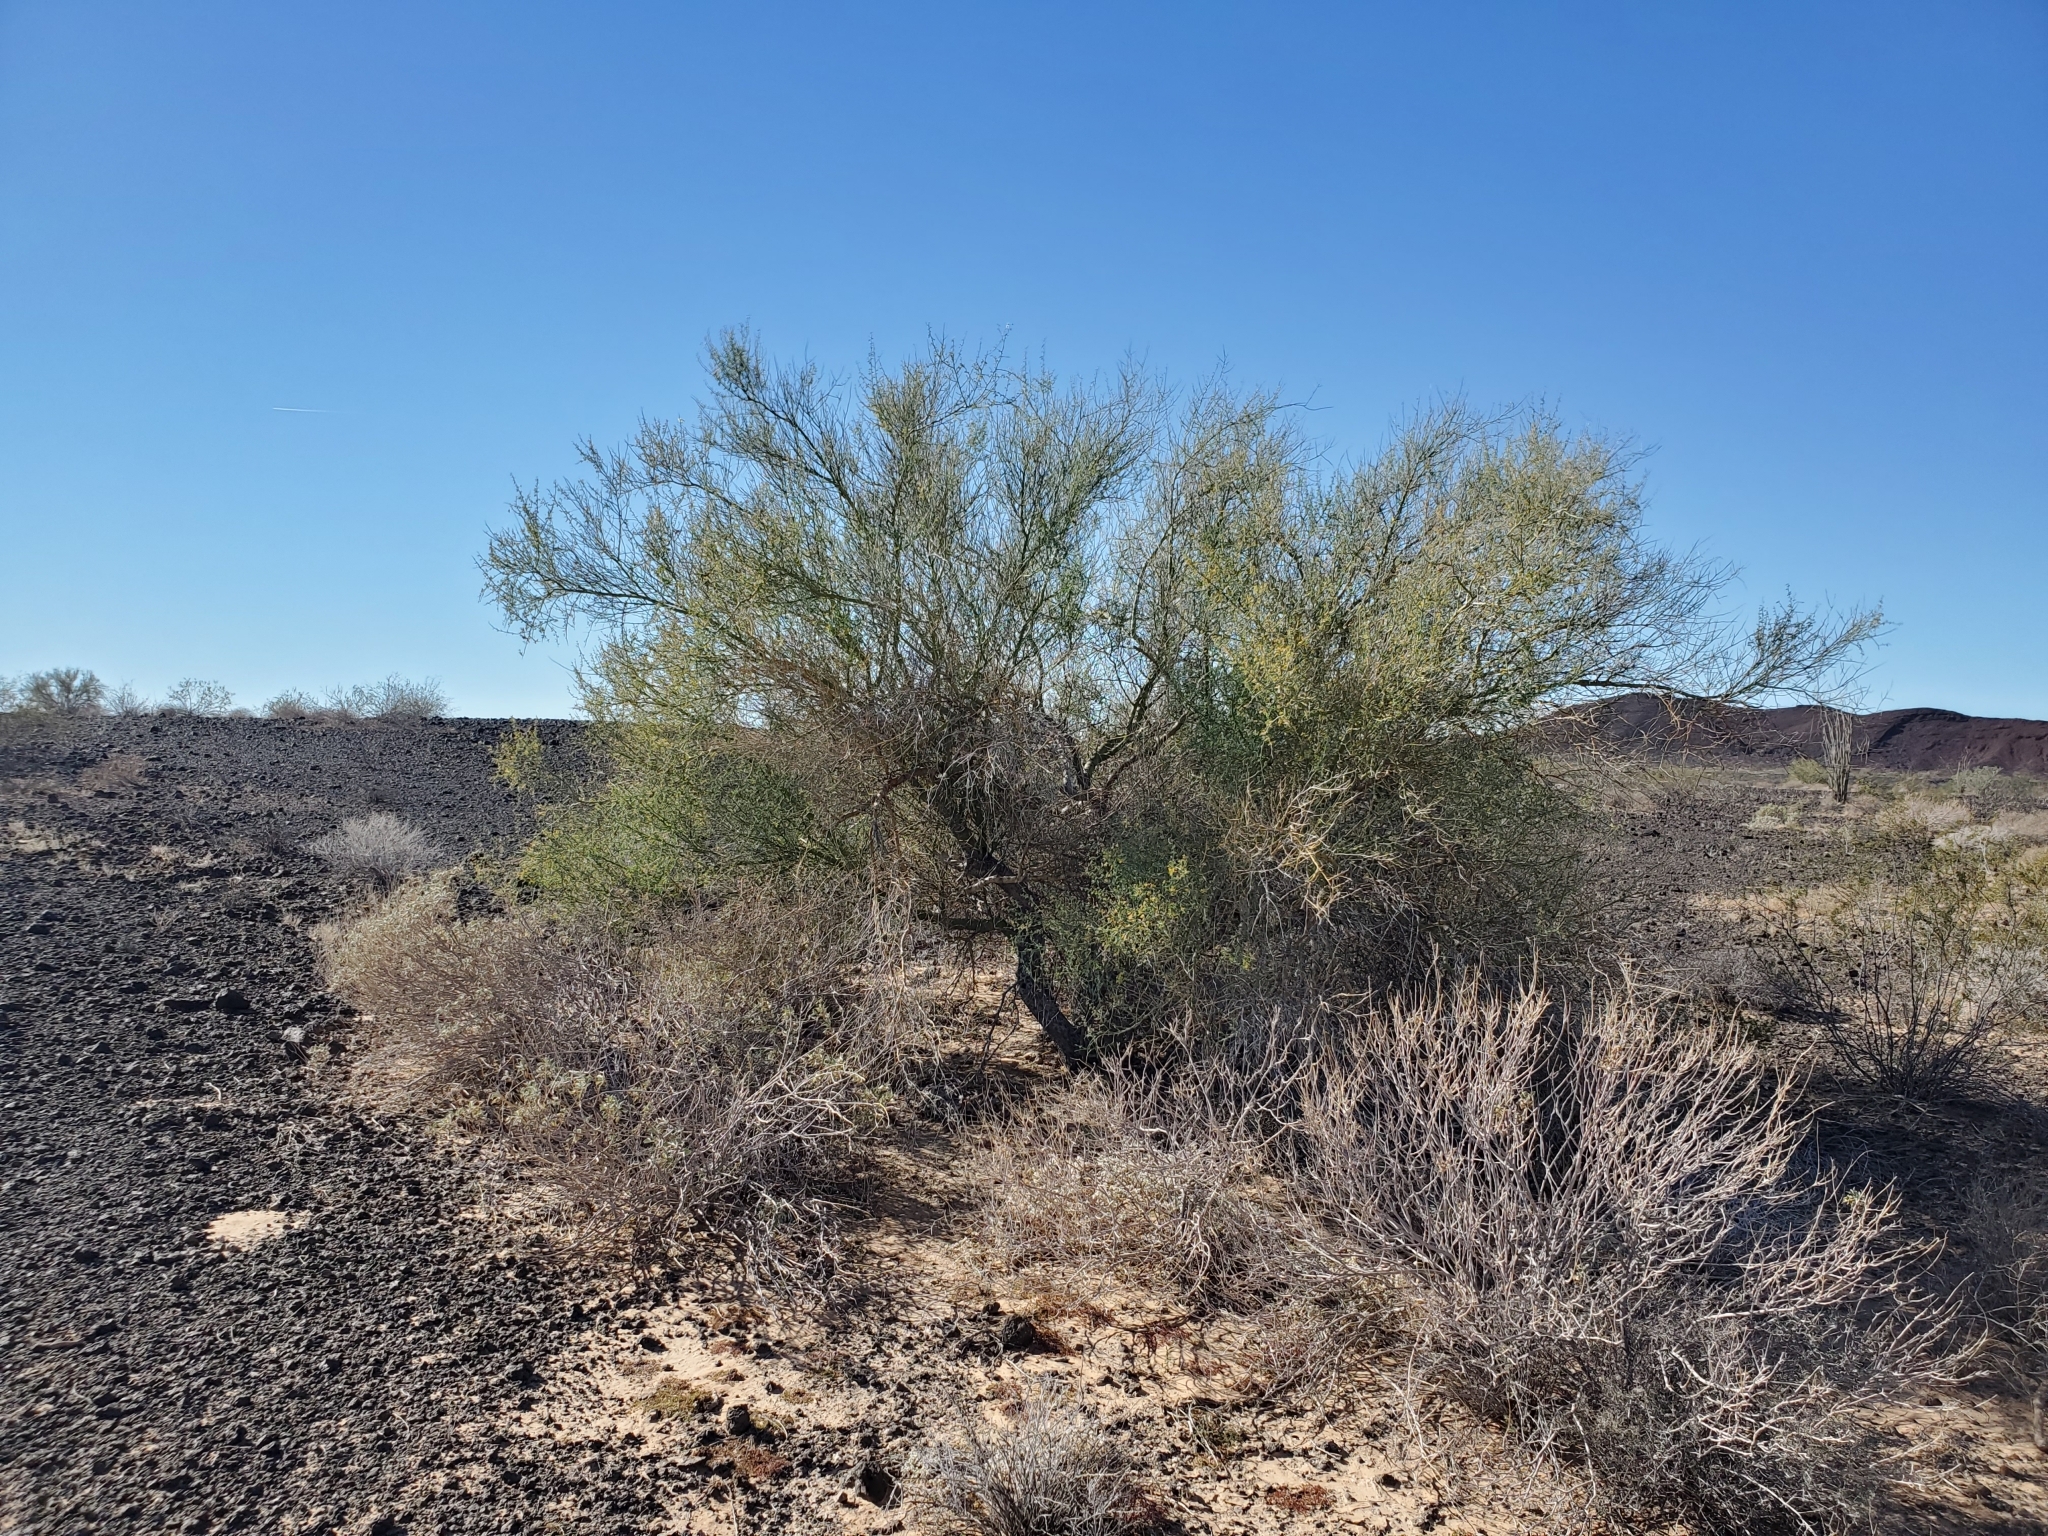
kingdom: Plantae
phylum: Tracheophyta
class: Magnoliopsida
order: Fabales
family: Fabaceae
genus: Parkinsonia
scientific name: Parkinsonia florida
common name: Blue paloverde
